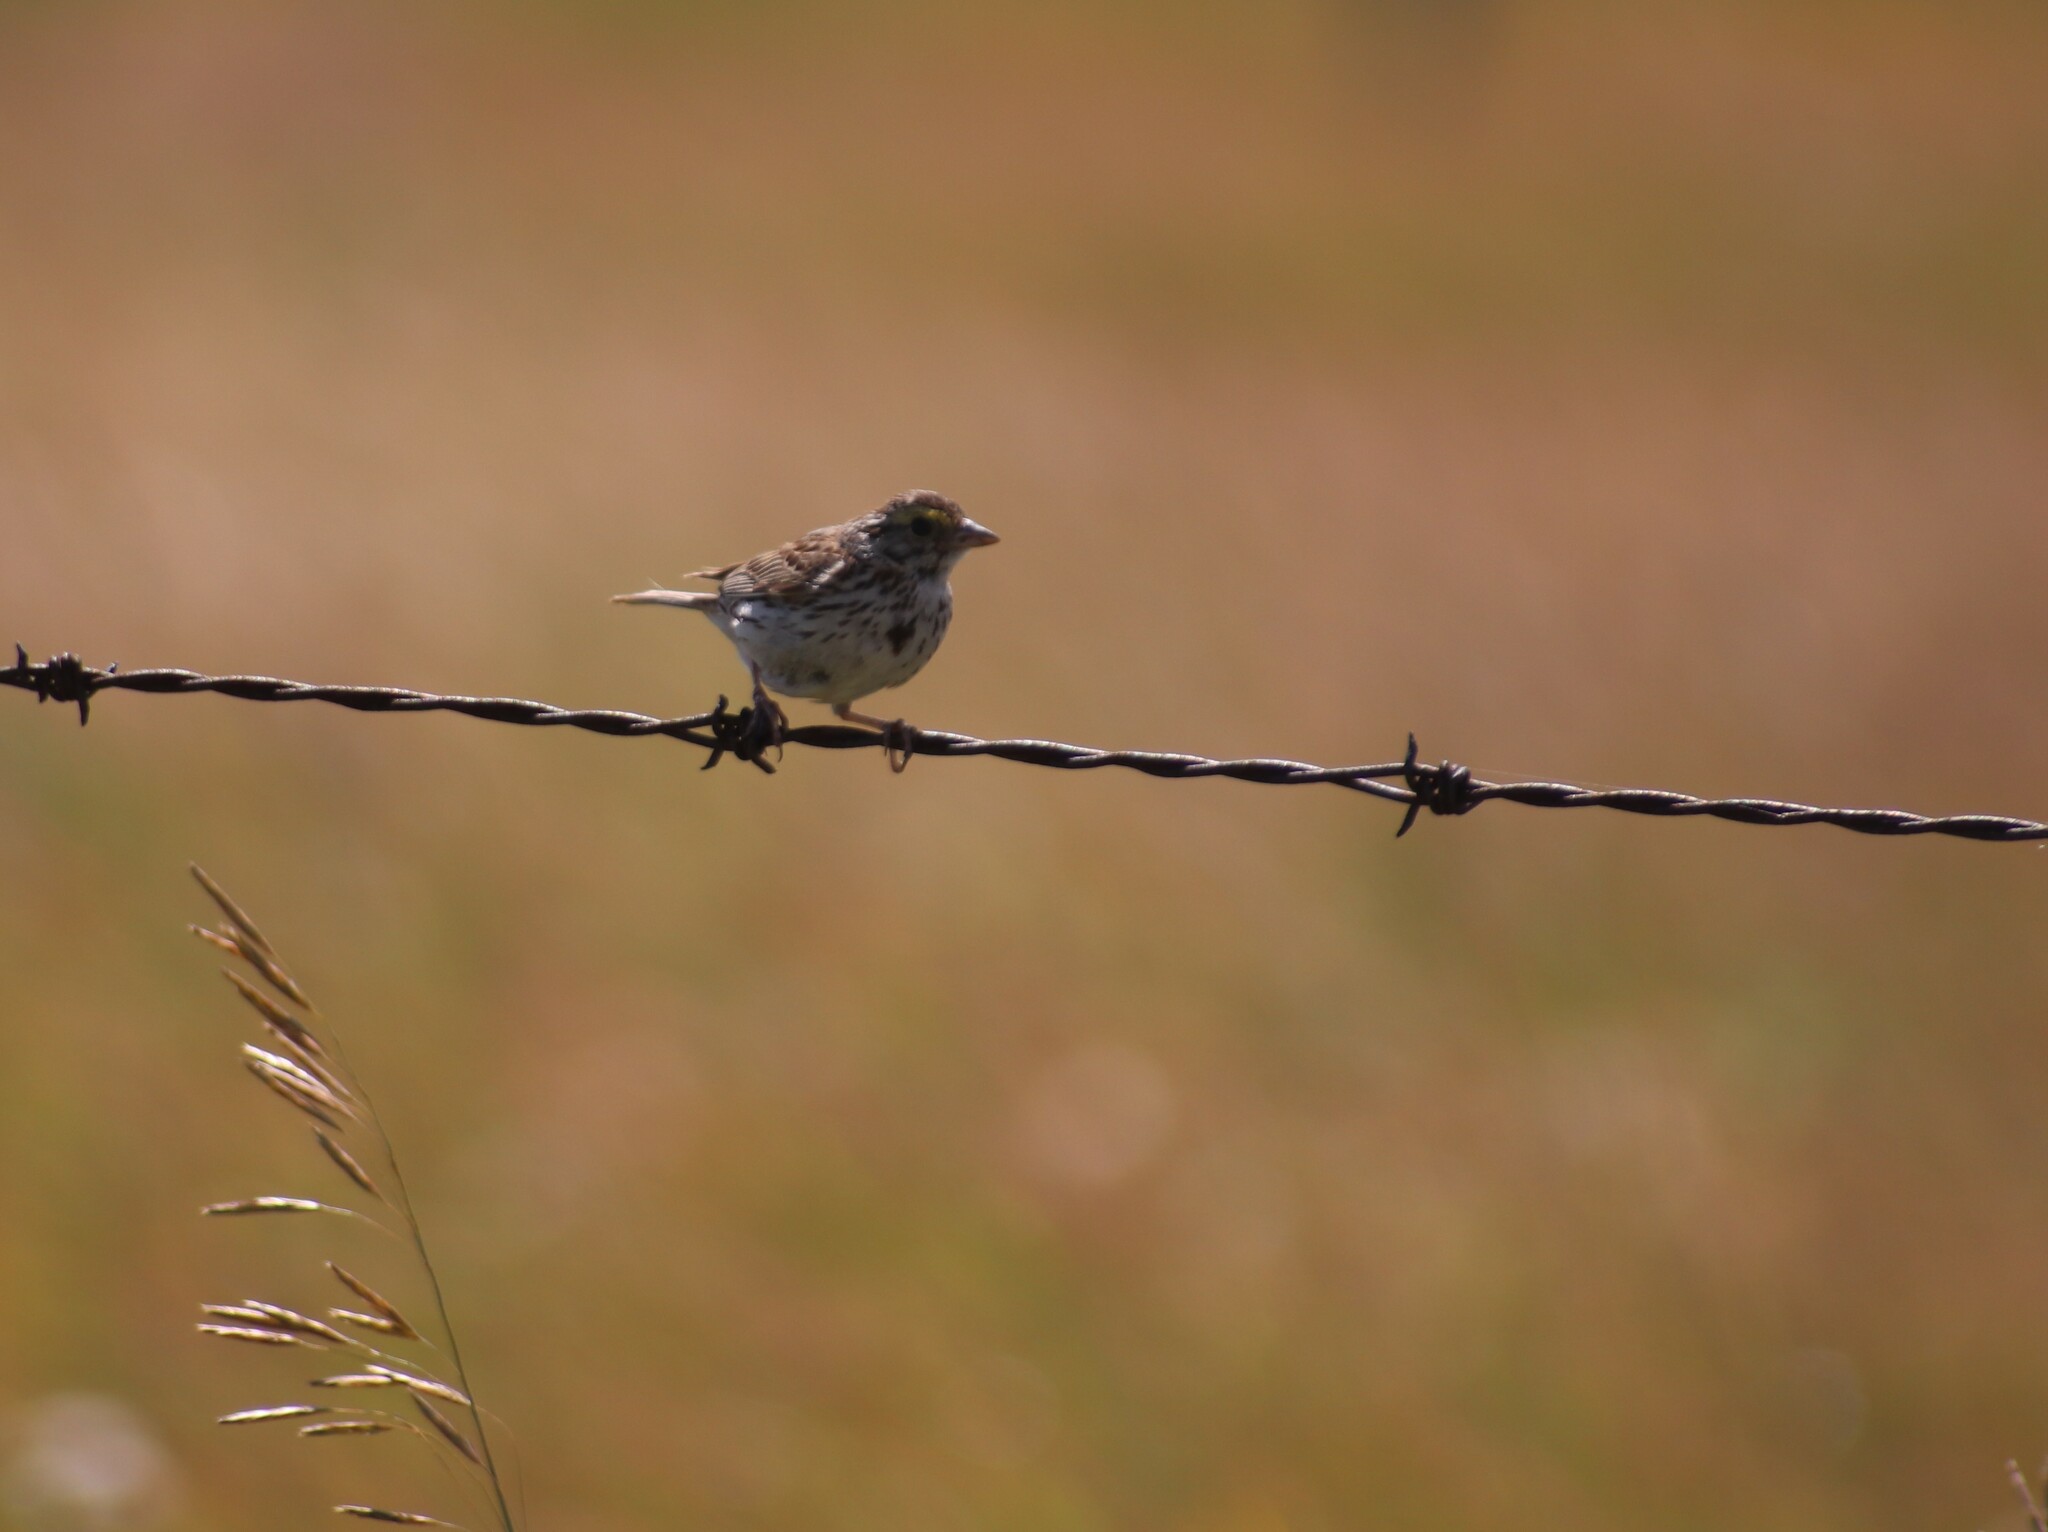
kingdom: Animalia
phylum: Chordata
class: Aves
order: Passeriformes
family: Passerellidae
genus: Passerculus
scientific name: Passerculus sandwichensis
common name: Savannah sparrow
